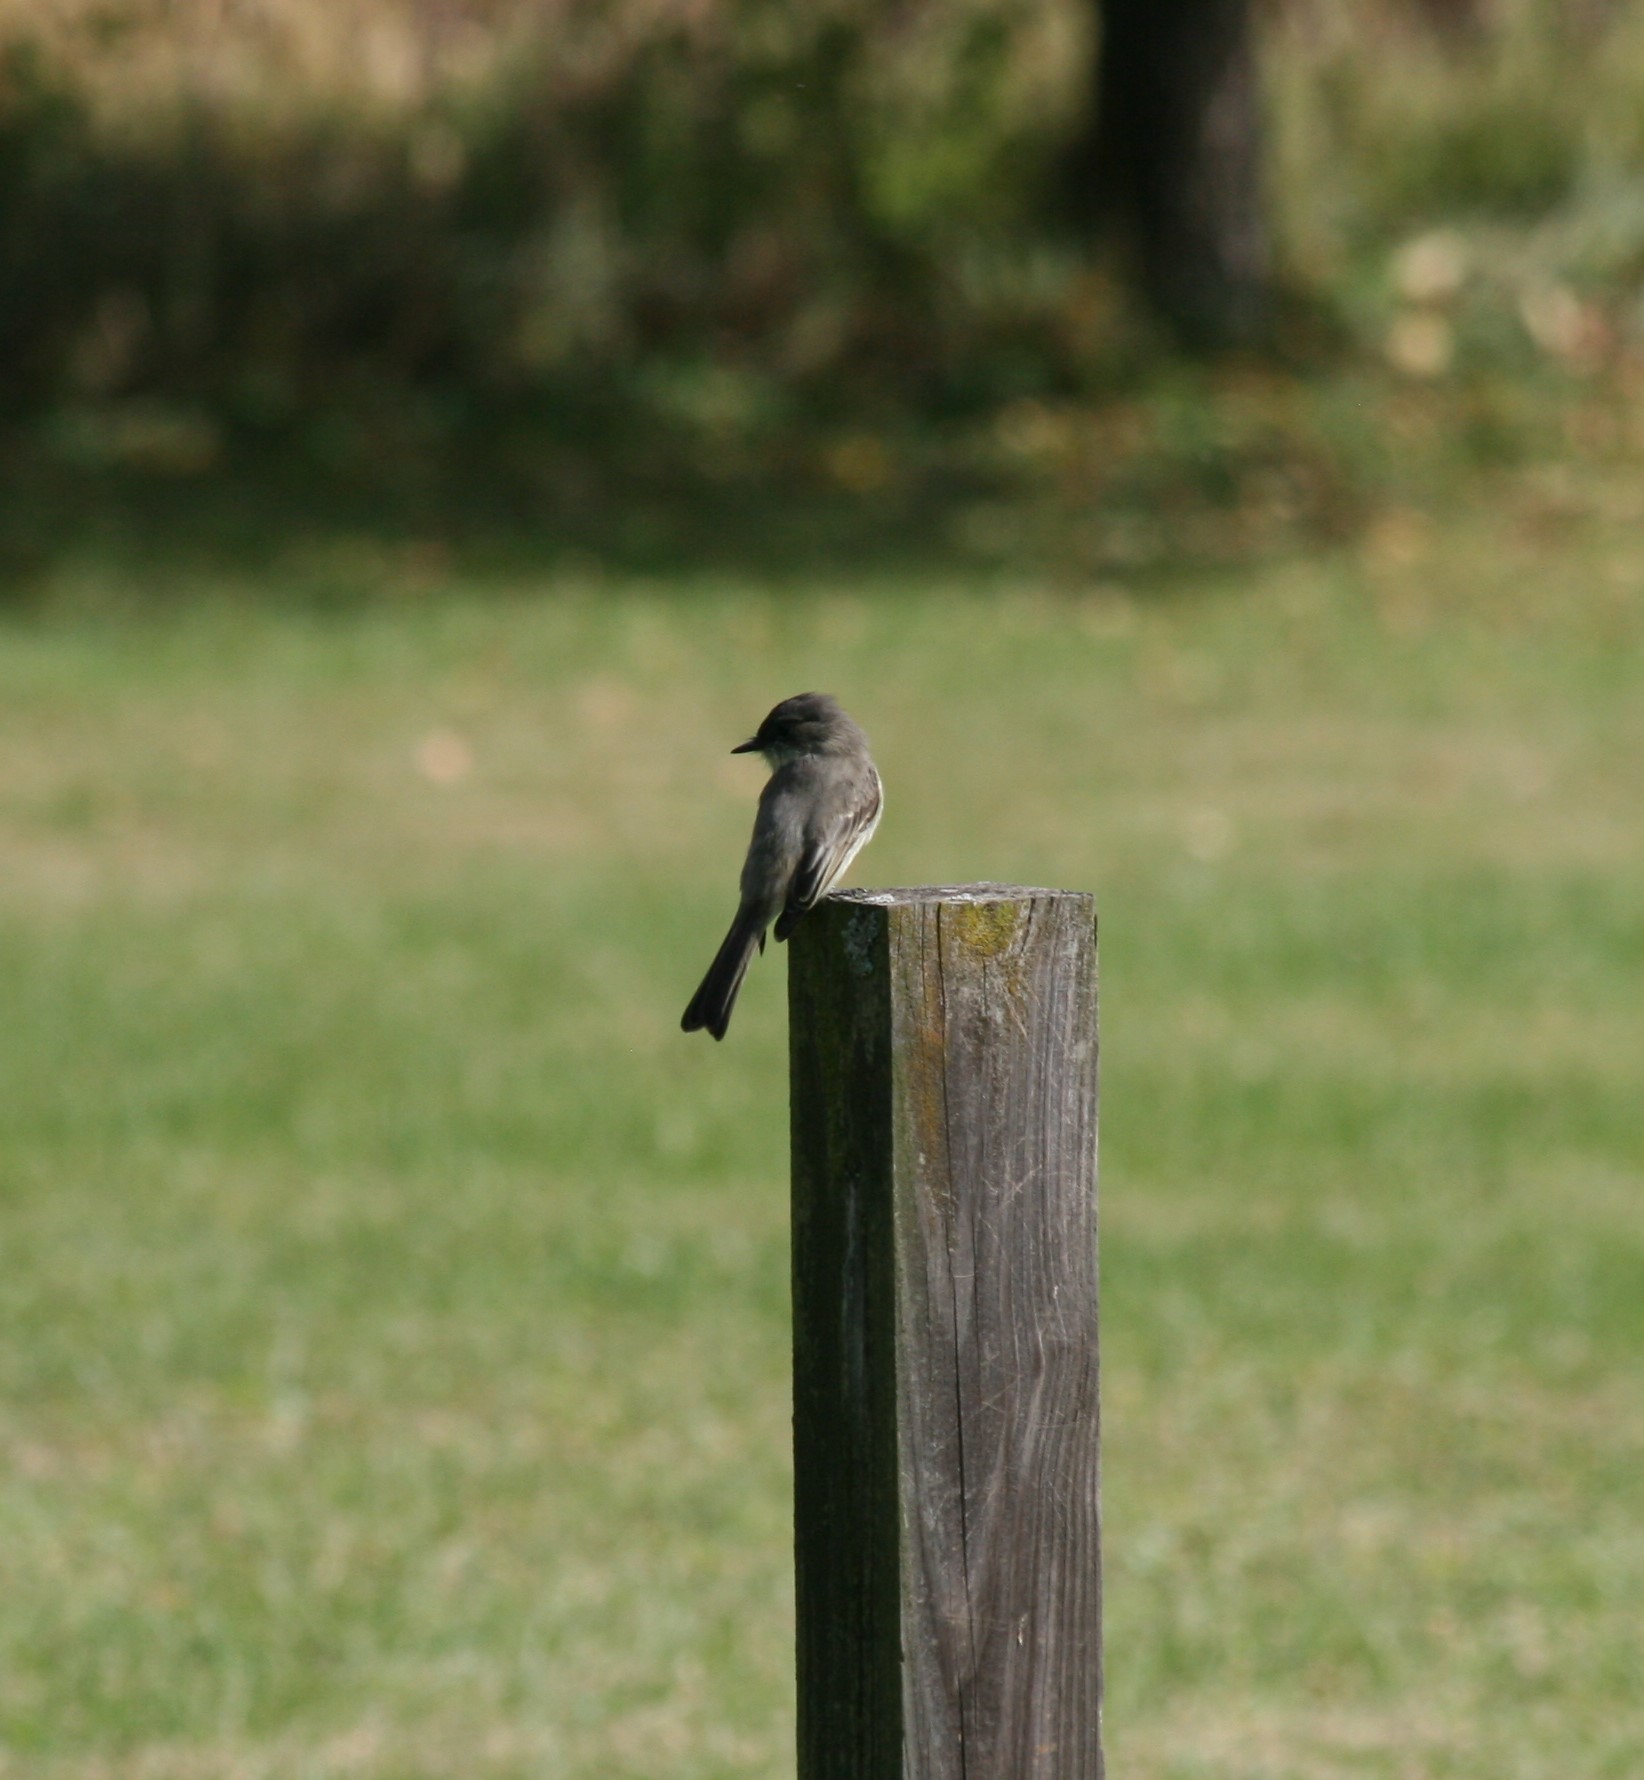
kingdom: Animalia
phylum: Chordata
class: Aves
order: Passeriformes
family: Tyrannidae
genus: Sayornis
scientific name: Sayornis phoebe
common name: Eastern phoebe
